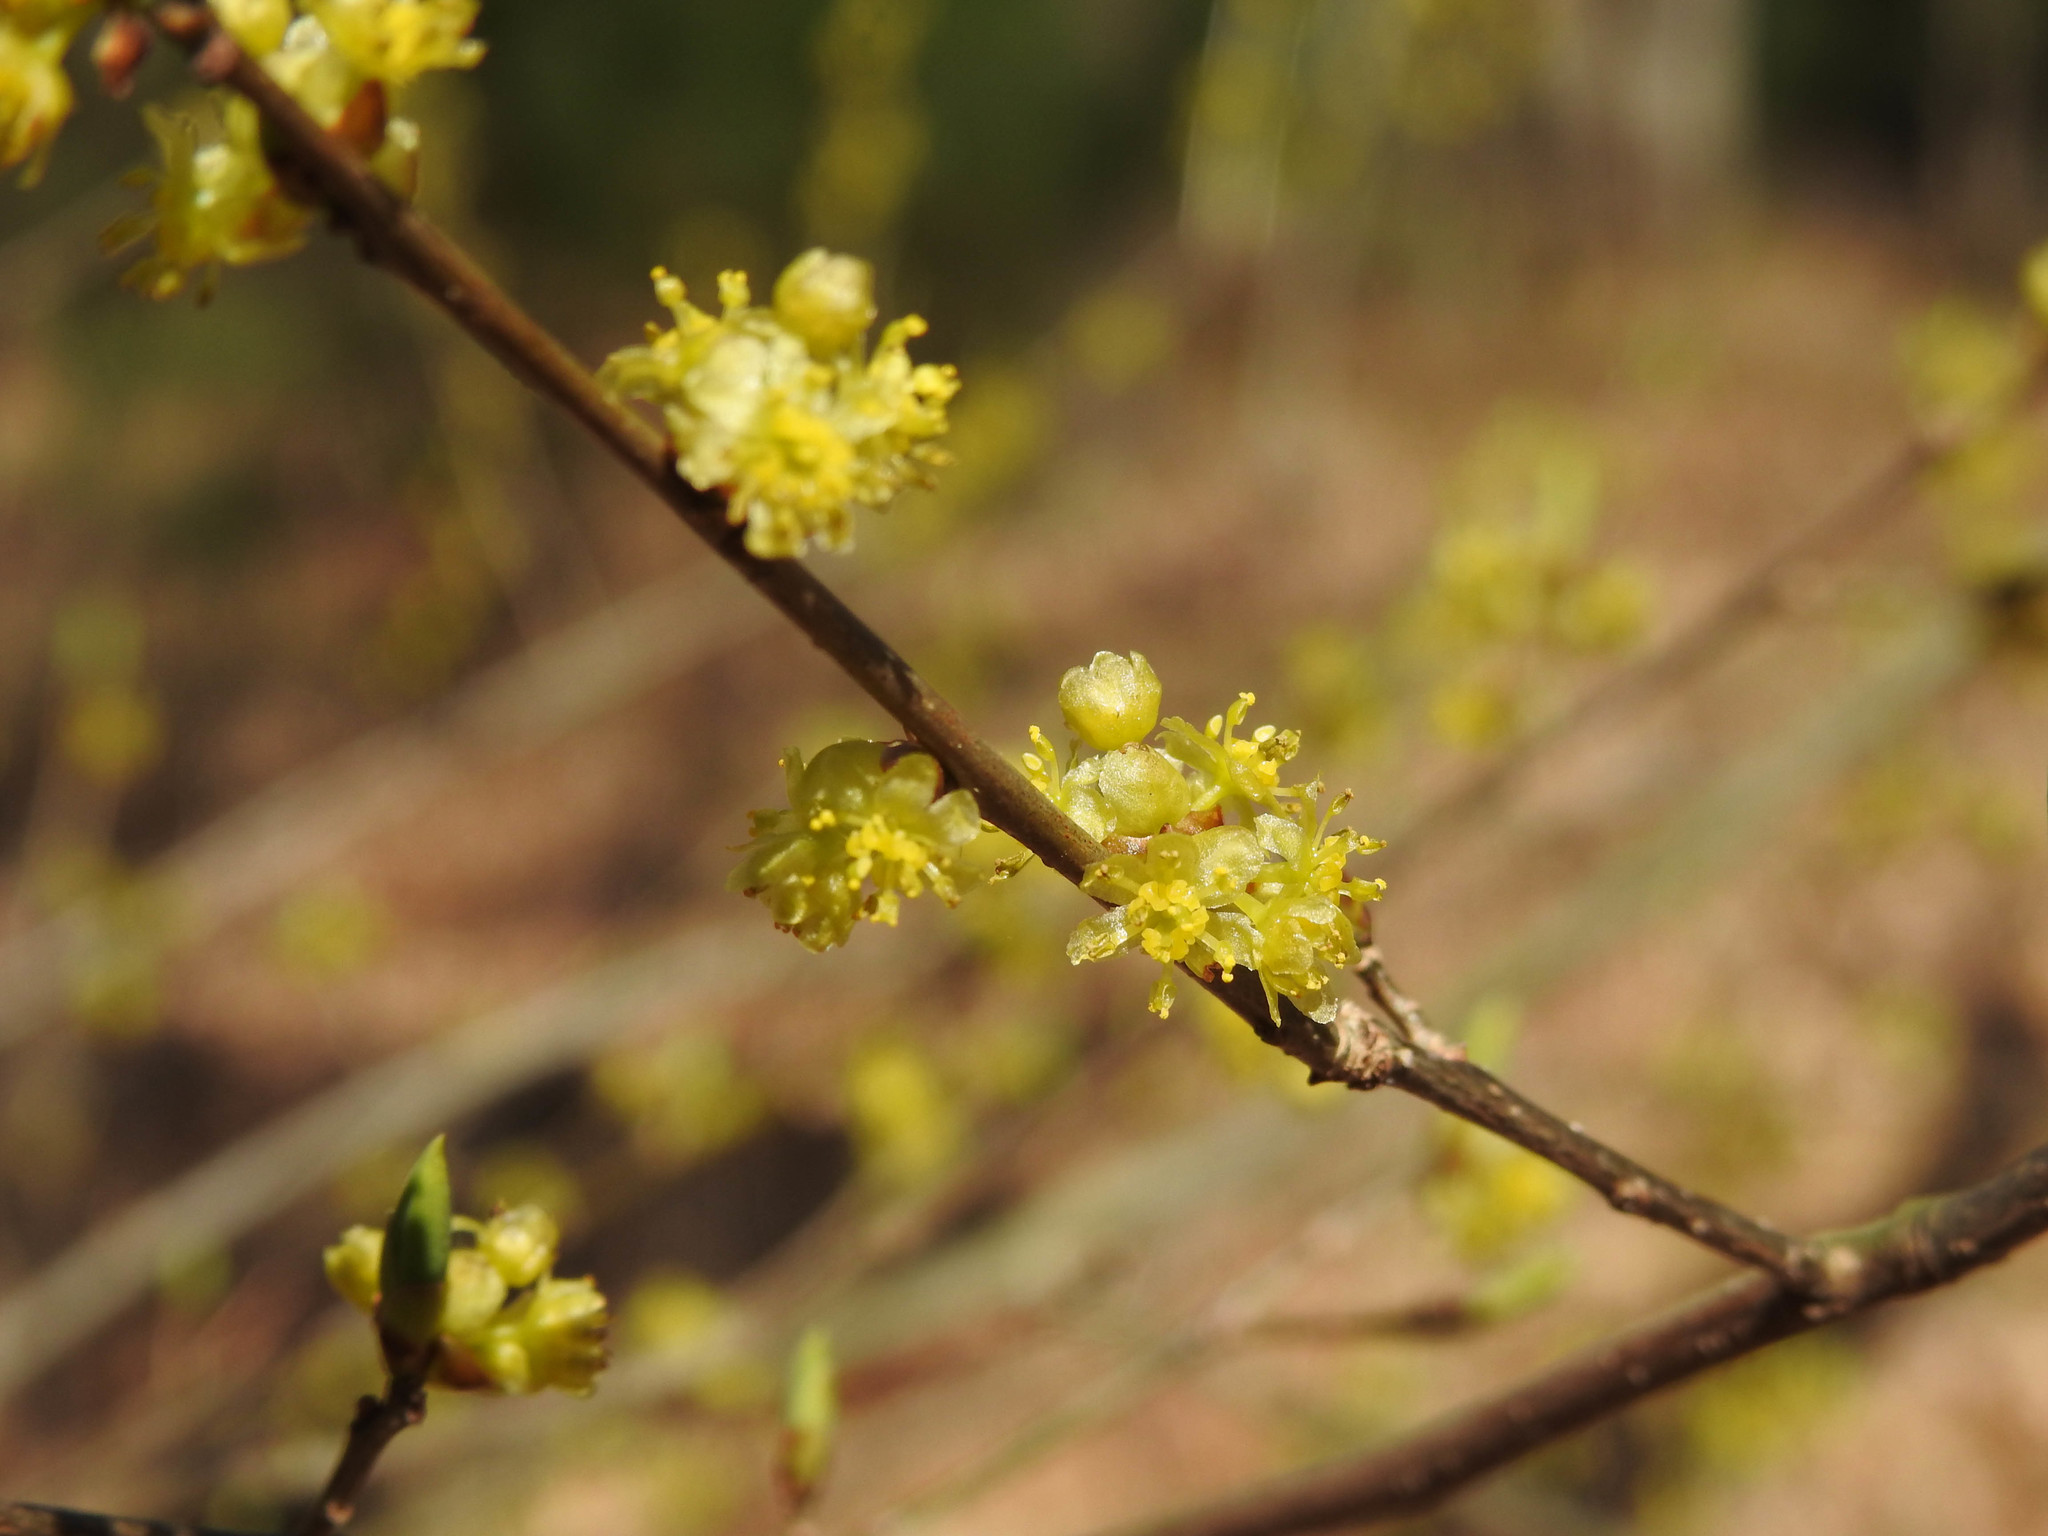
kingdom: Plantae
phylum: Tracheophyta
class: Magnoliopsida
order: Laurales
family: Lauraceae
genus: Lindera
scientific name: Lindera benzoin
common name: Spicebush
